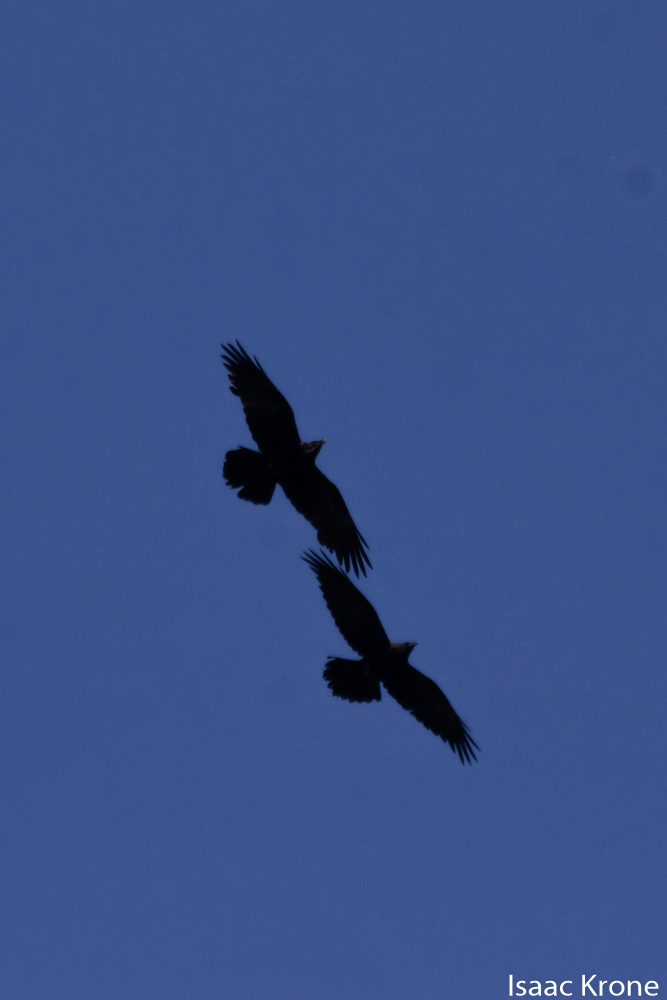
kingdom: Animalia
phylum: Chordata
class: Aves
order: Passeriformes
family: Corvidae
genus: Corvus
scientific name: Corvus brachyrhynchos
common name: American crow
